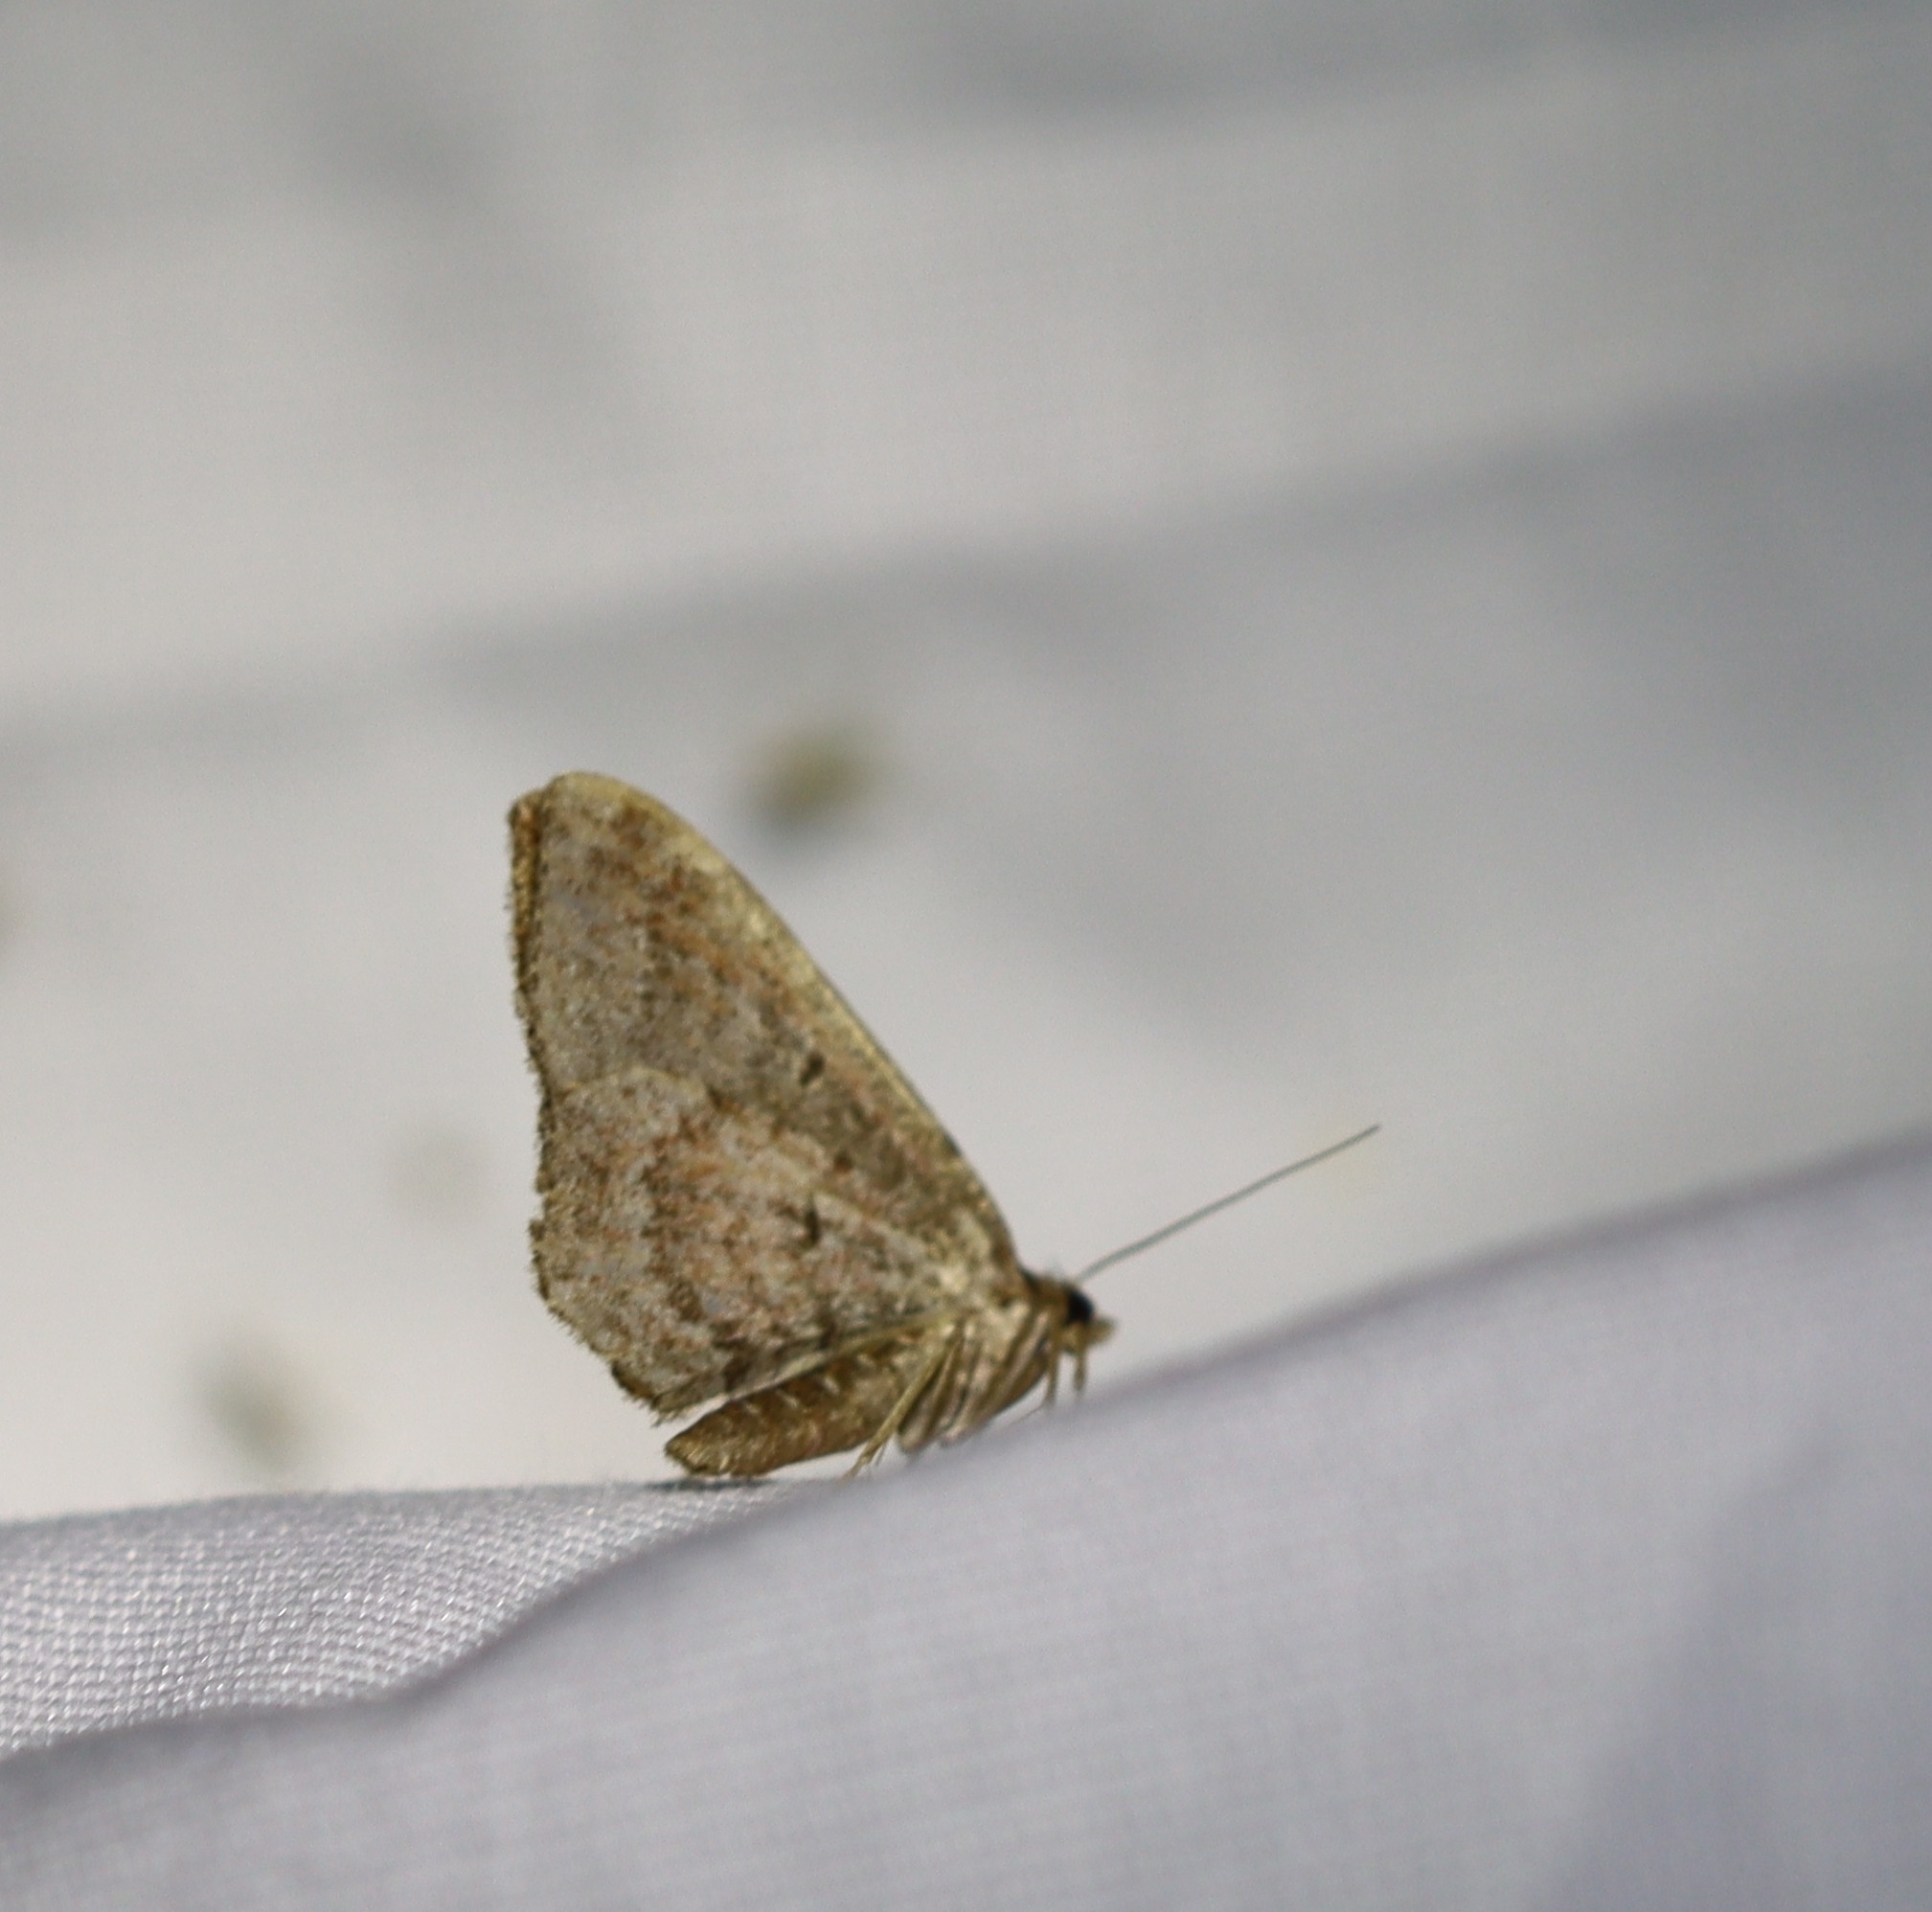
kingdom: Animalia
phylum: Arthropoda
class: Insecta
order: Lepidoptera
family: Geometridae
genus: Orthonama
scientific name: Orthonama obstipata
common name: The gem
